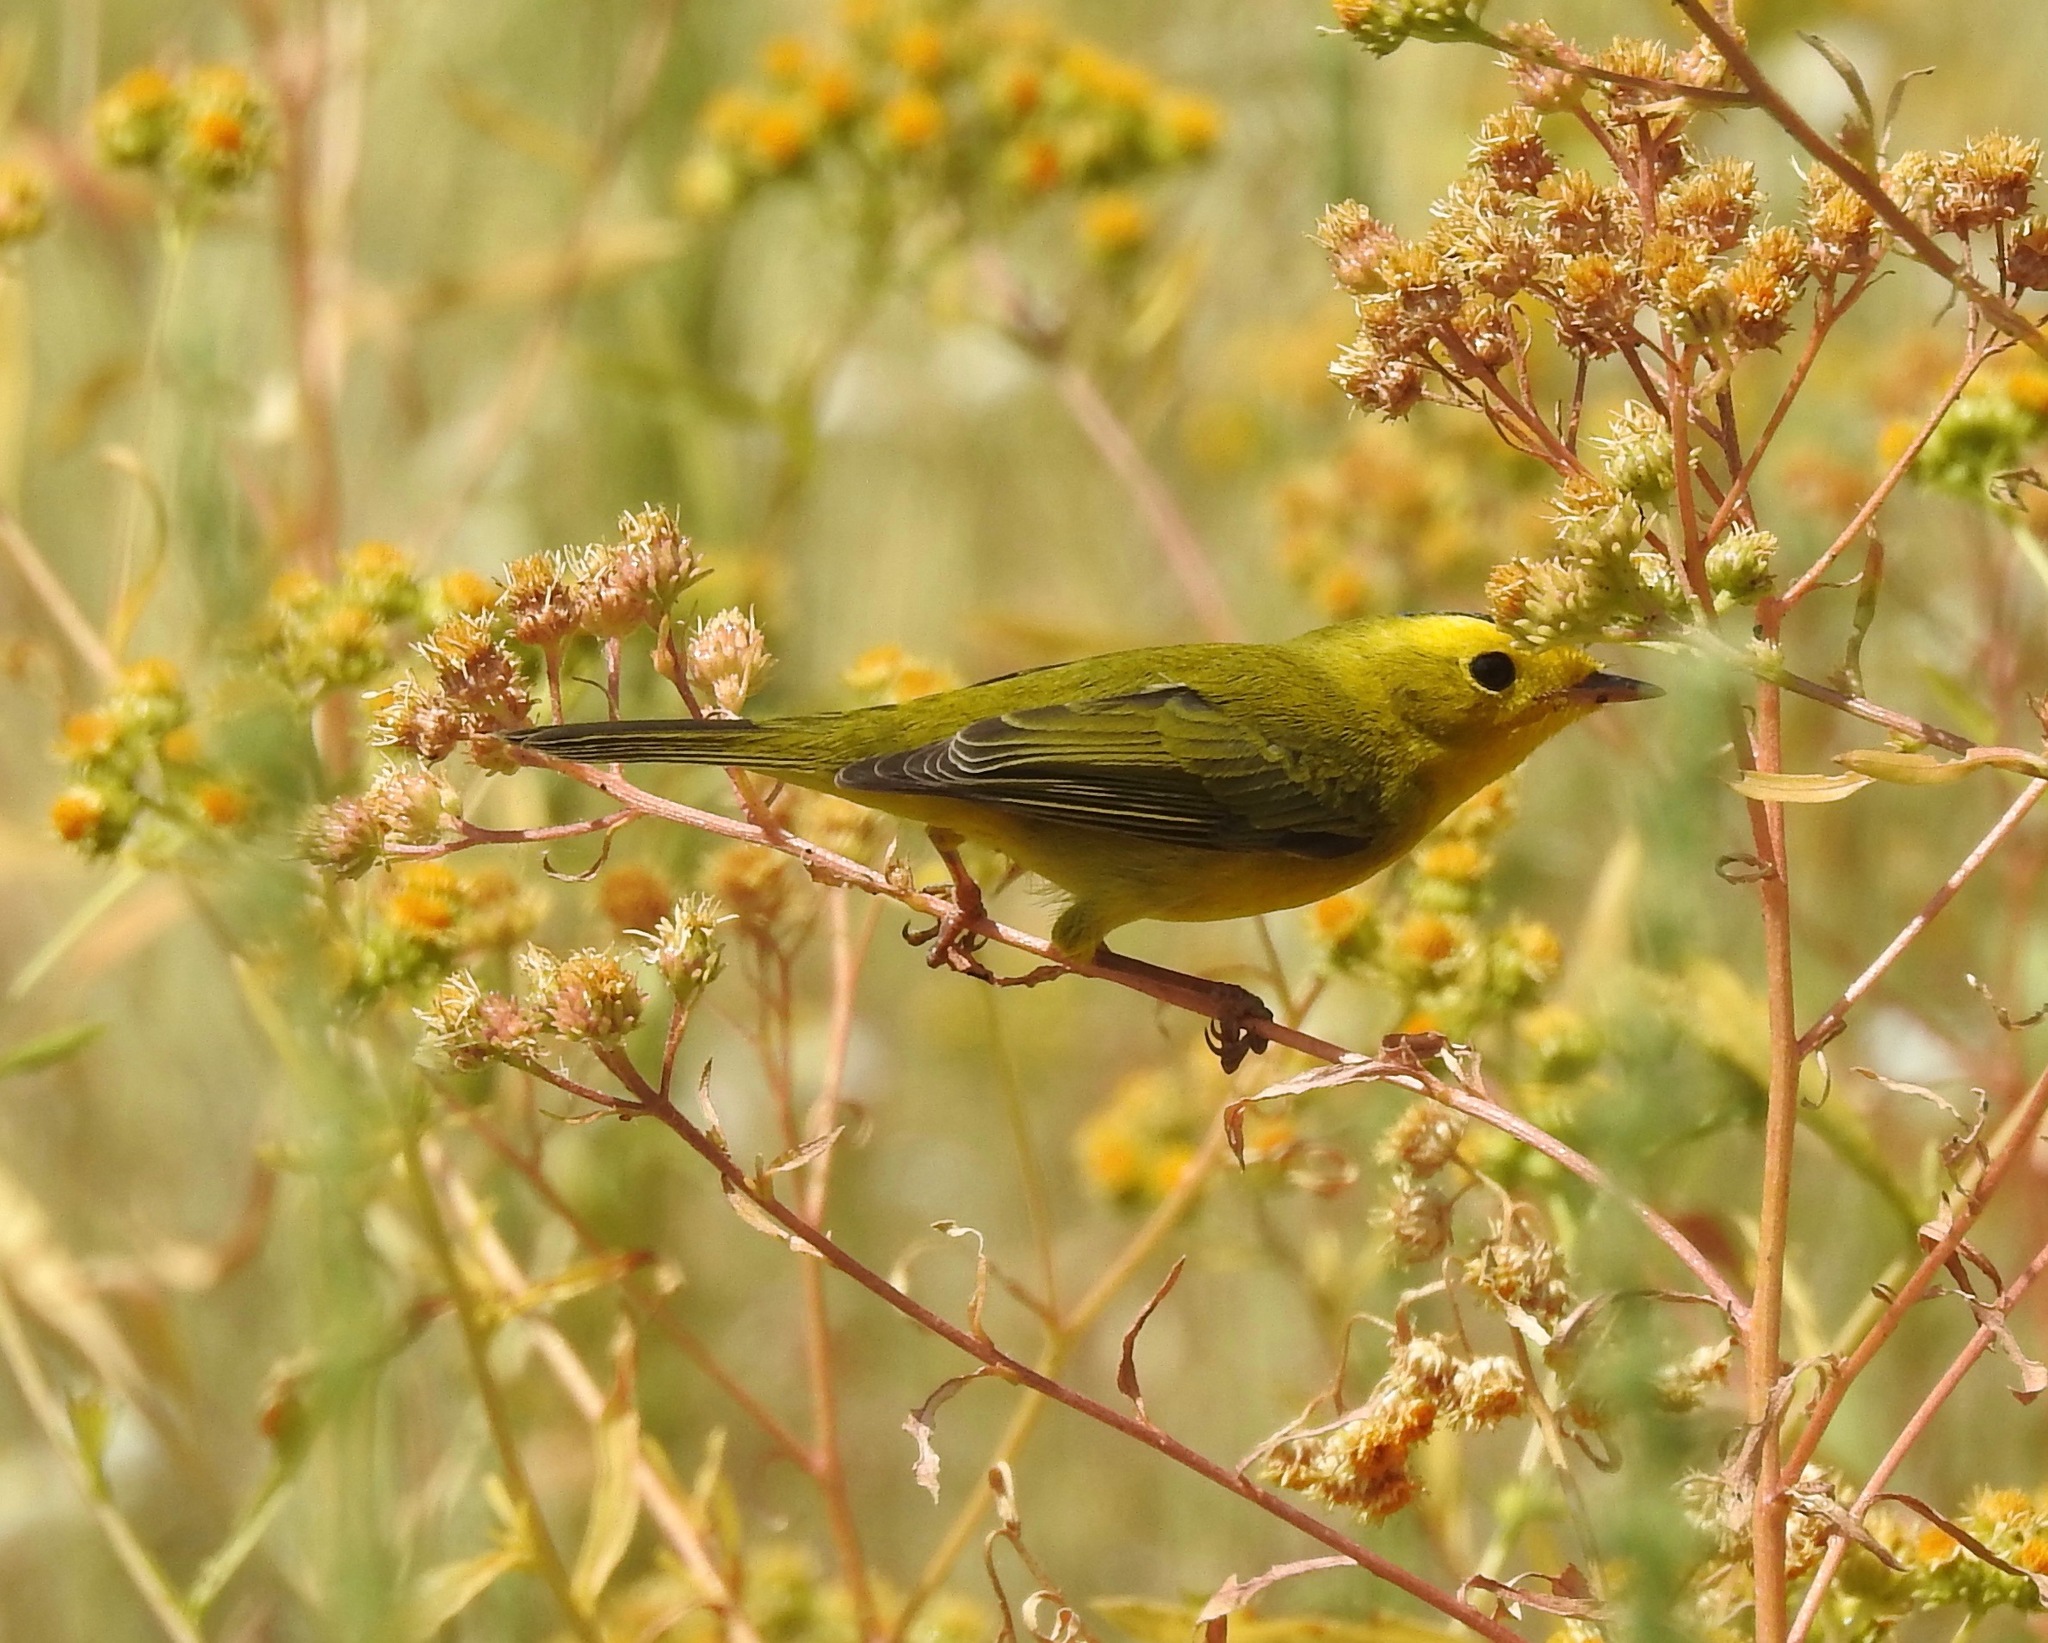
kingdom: Animalia
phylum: Chordata
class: Aves
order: Passeriformes
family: Parulidae
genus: Cardellina
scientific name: Cardellina pusilla
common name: Wilson's warbler
